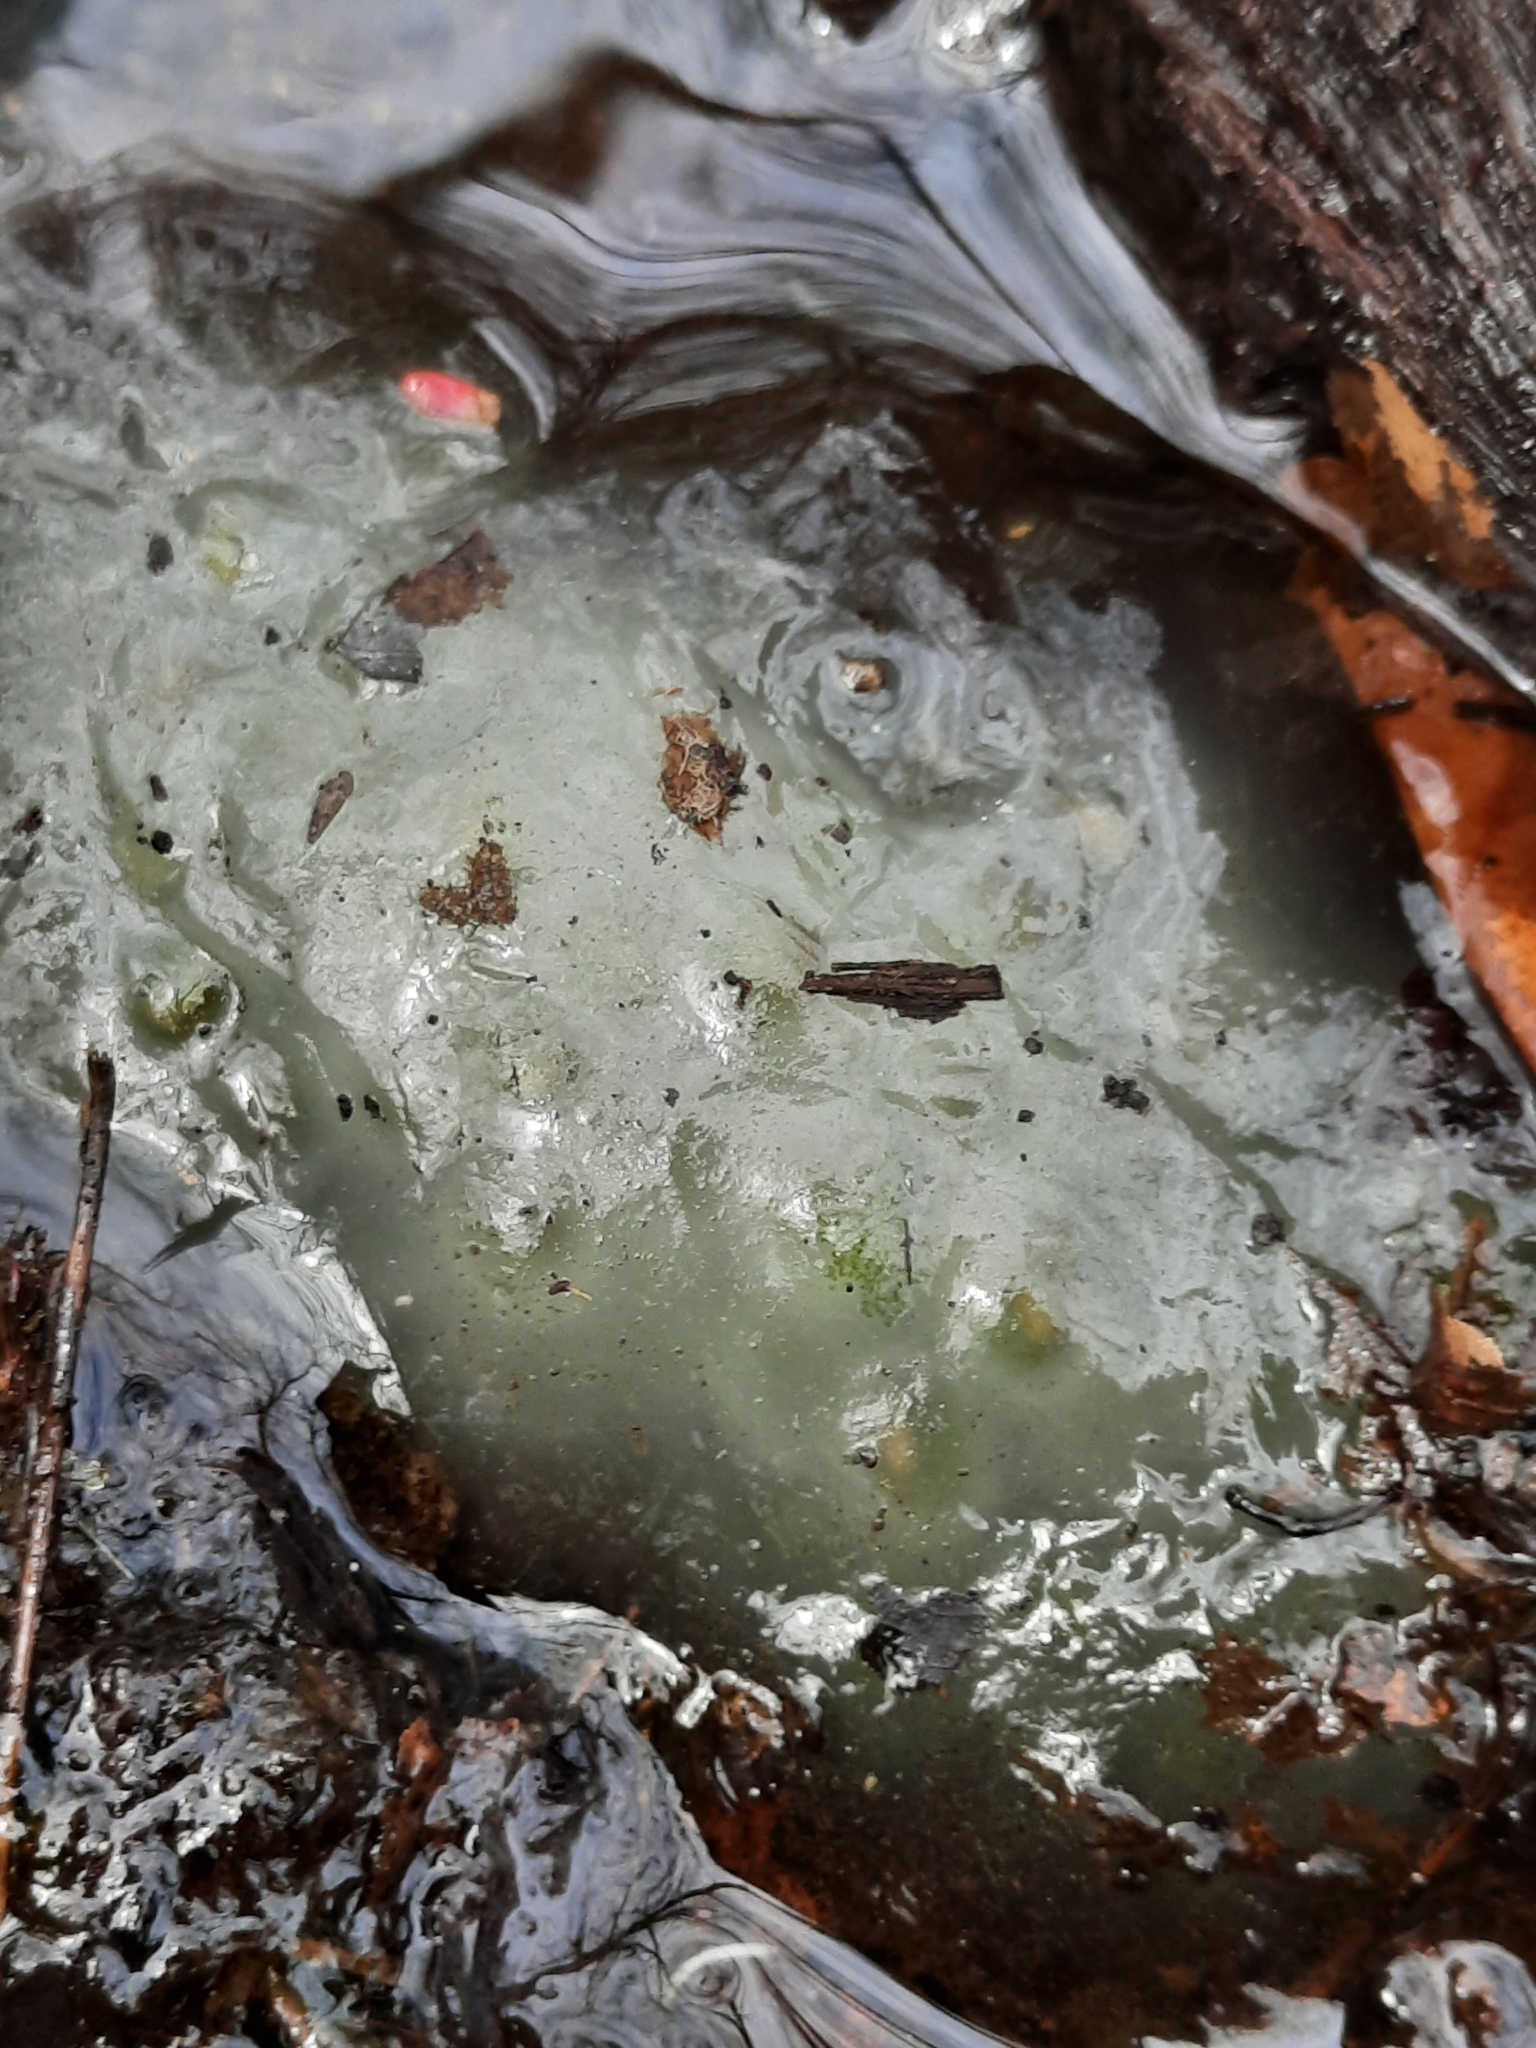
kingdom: Animalia
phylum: Chordata
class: Amphibia
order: Caudata
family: Ambystomatidae
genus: Ambystoma
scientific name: Ambystoma maculatum
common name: Spotted salamander
